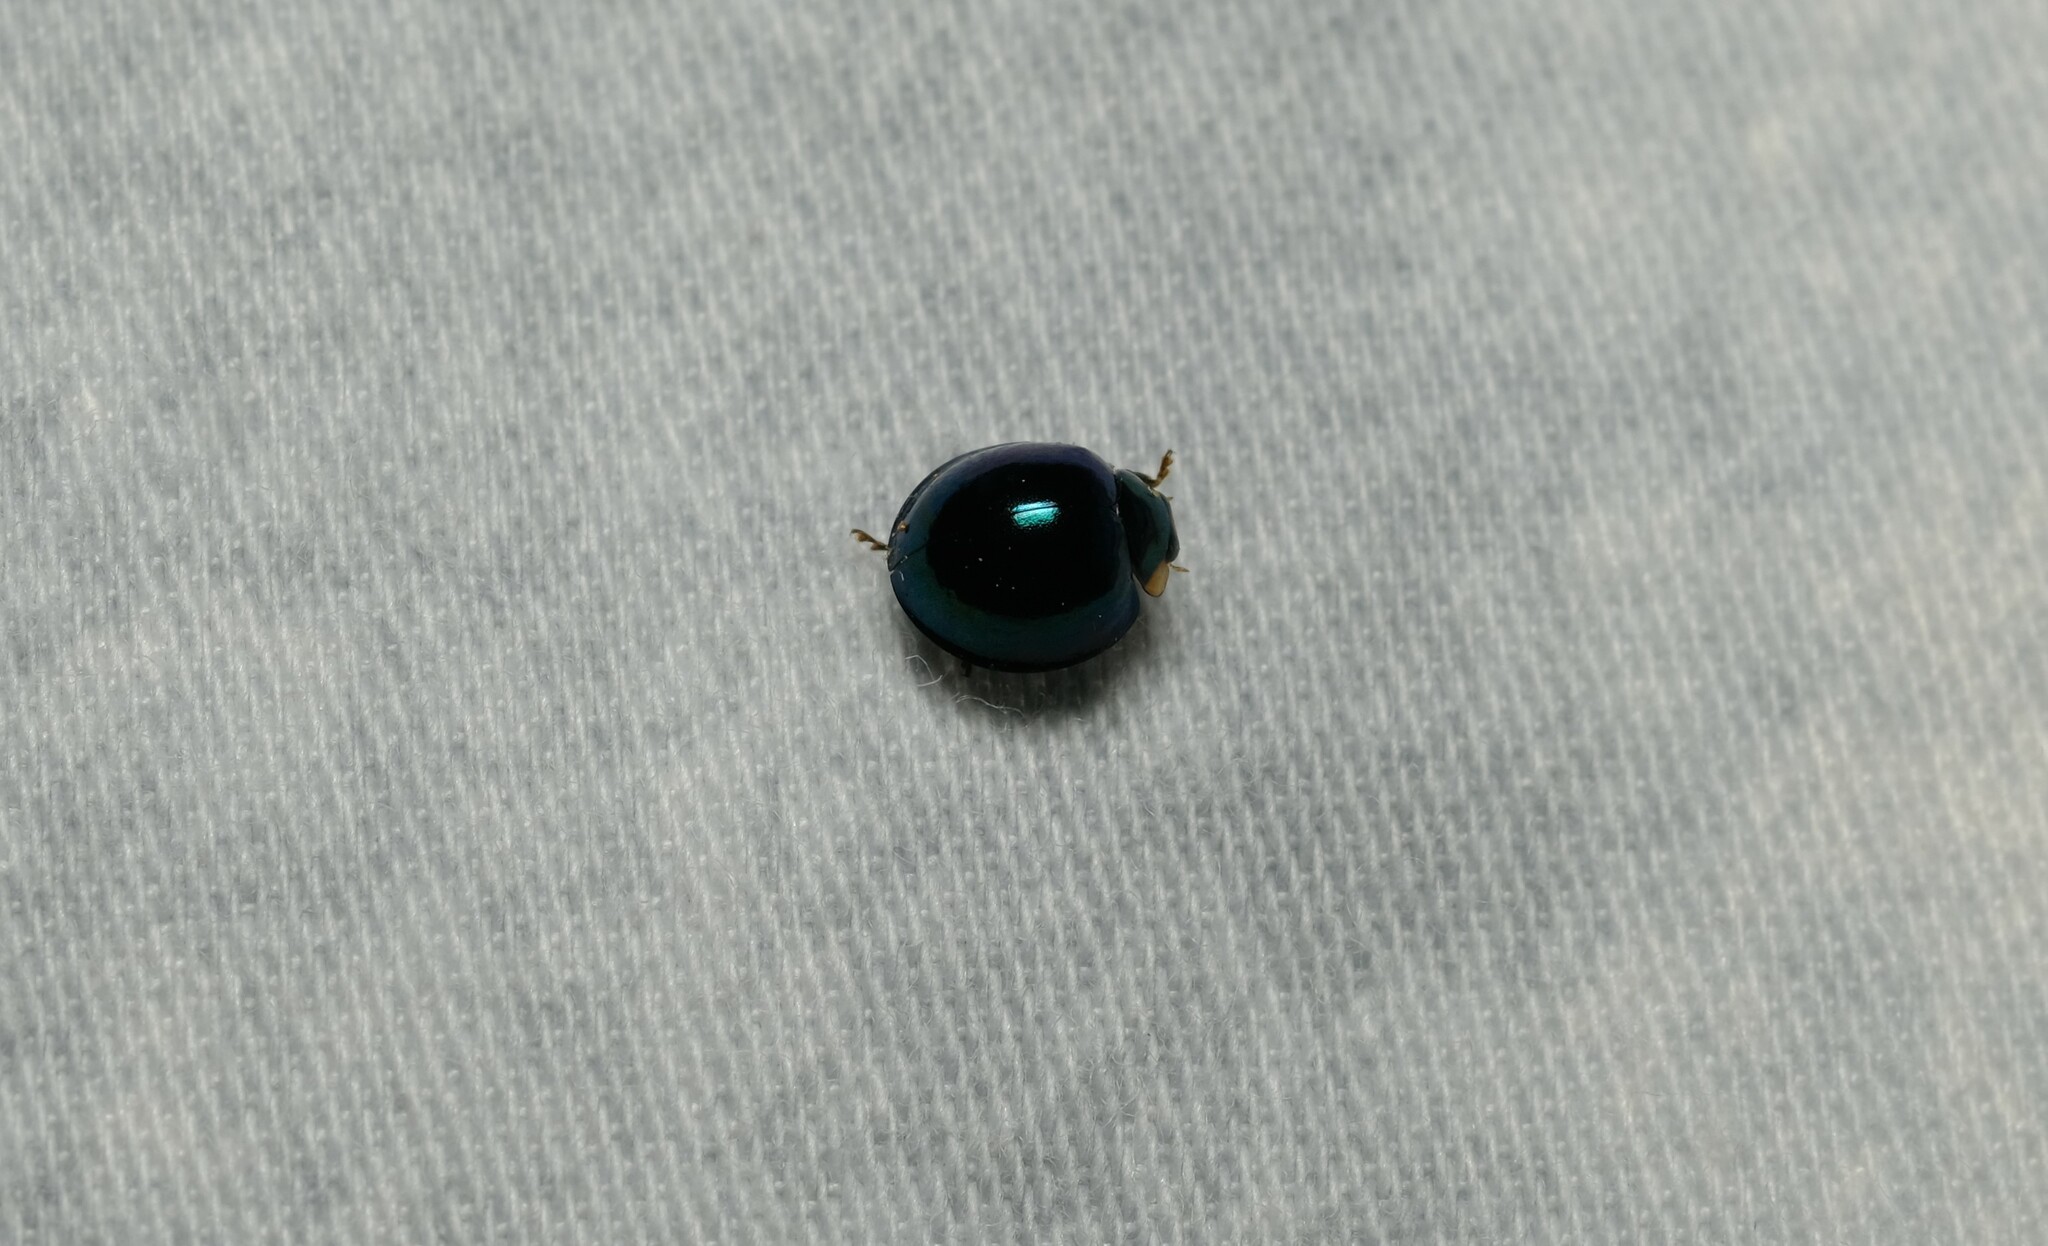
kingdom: Animalia
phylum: Arthropoda
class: Insecta
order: Coleoptera
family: Coccinellidae
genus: Halmus
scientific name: Halmus chalybeus
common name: Steel blue ladybird beetle
